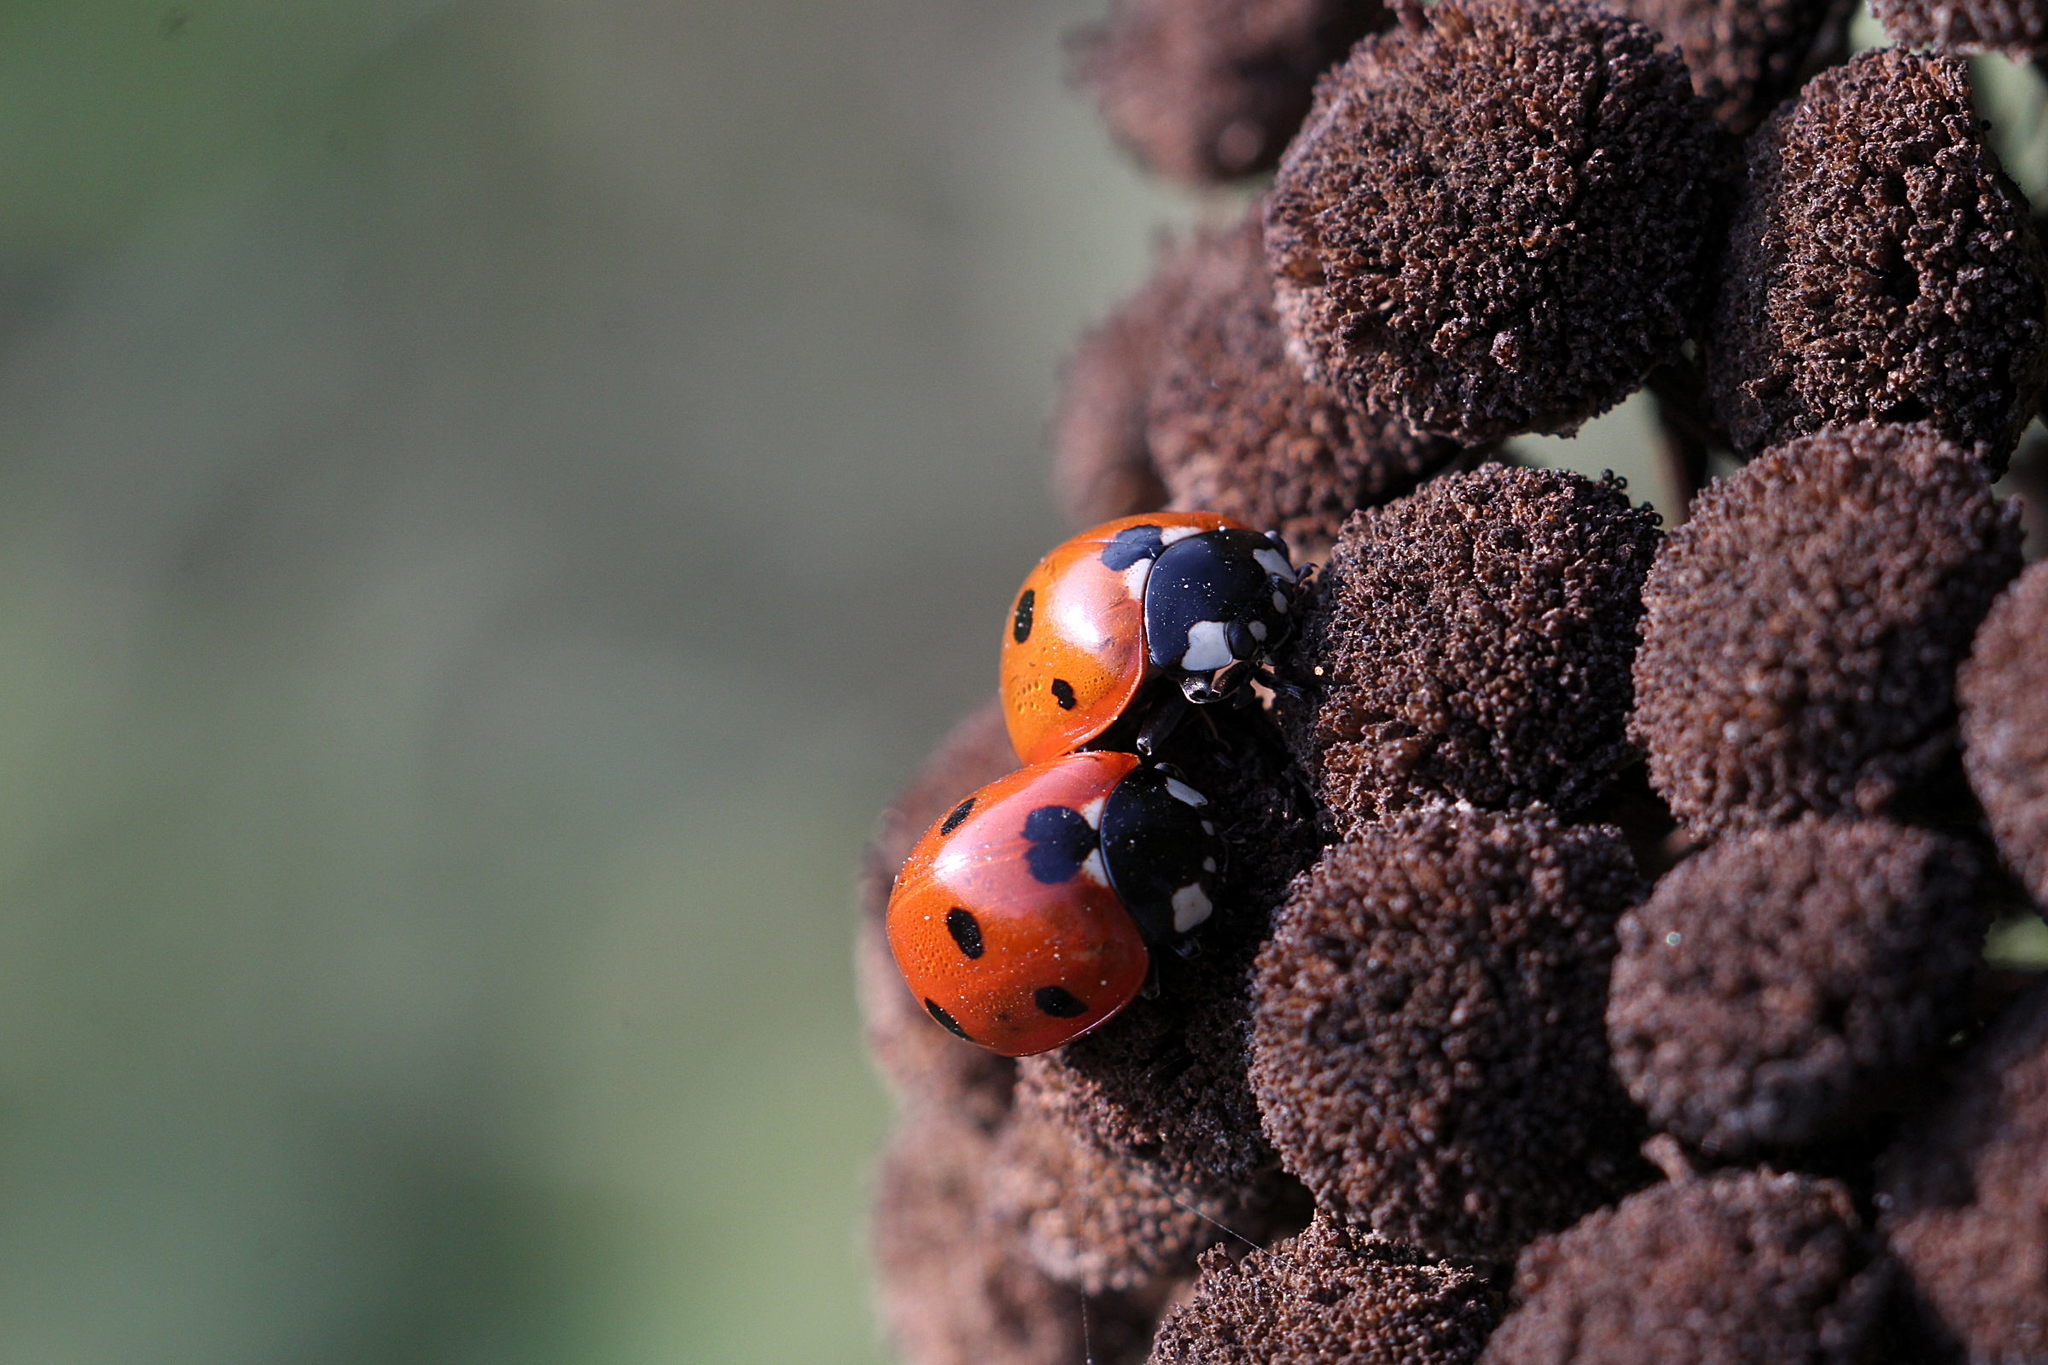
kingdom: Animalia
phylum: Arthropoda
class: Insecta
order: Coleoptera
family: Coccinellidae
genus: Coccinella
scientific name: Coccinella septempunctata
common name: Sevenspotted lady beetle
